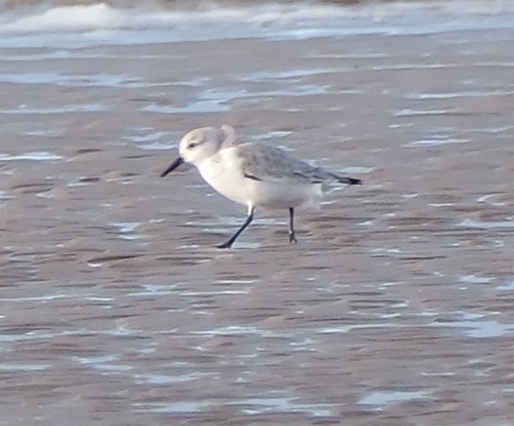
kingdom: Animalia
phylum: Chordata
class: Aves
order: Charadriiformes
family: Scolopacidae
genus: Calidris
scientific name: Calidris alba
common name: Sanderling
